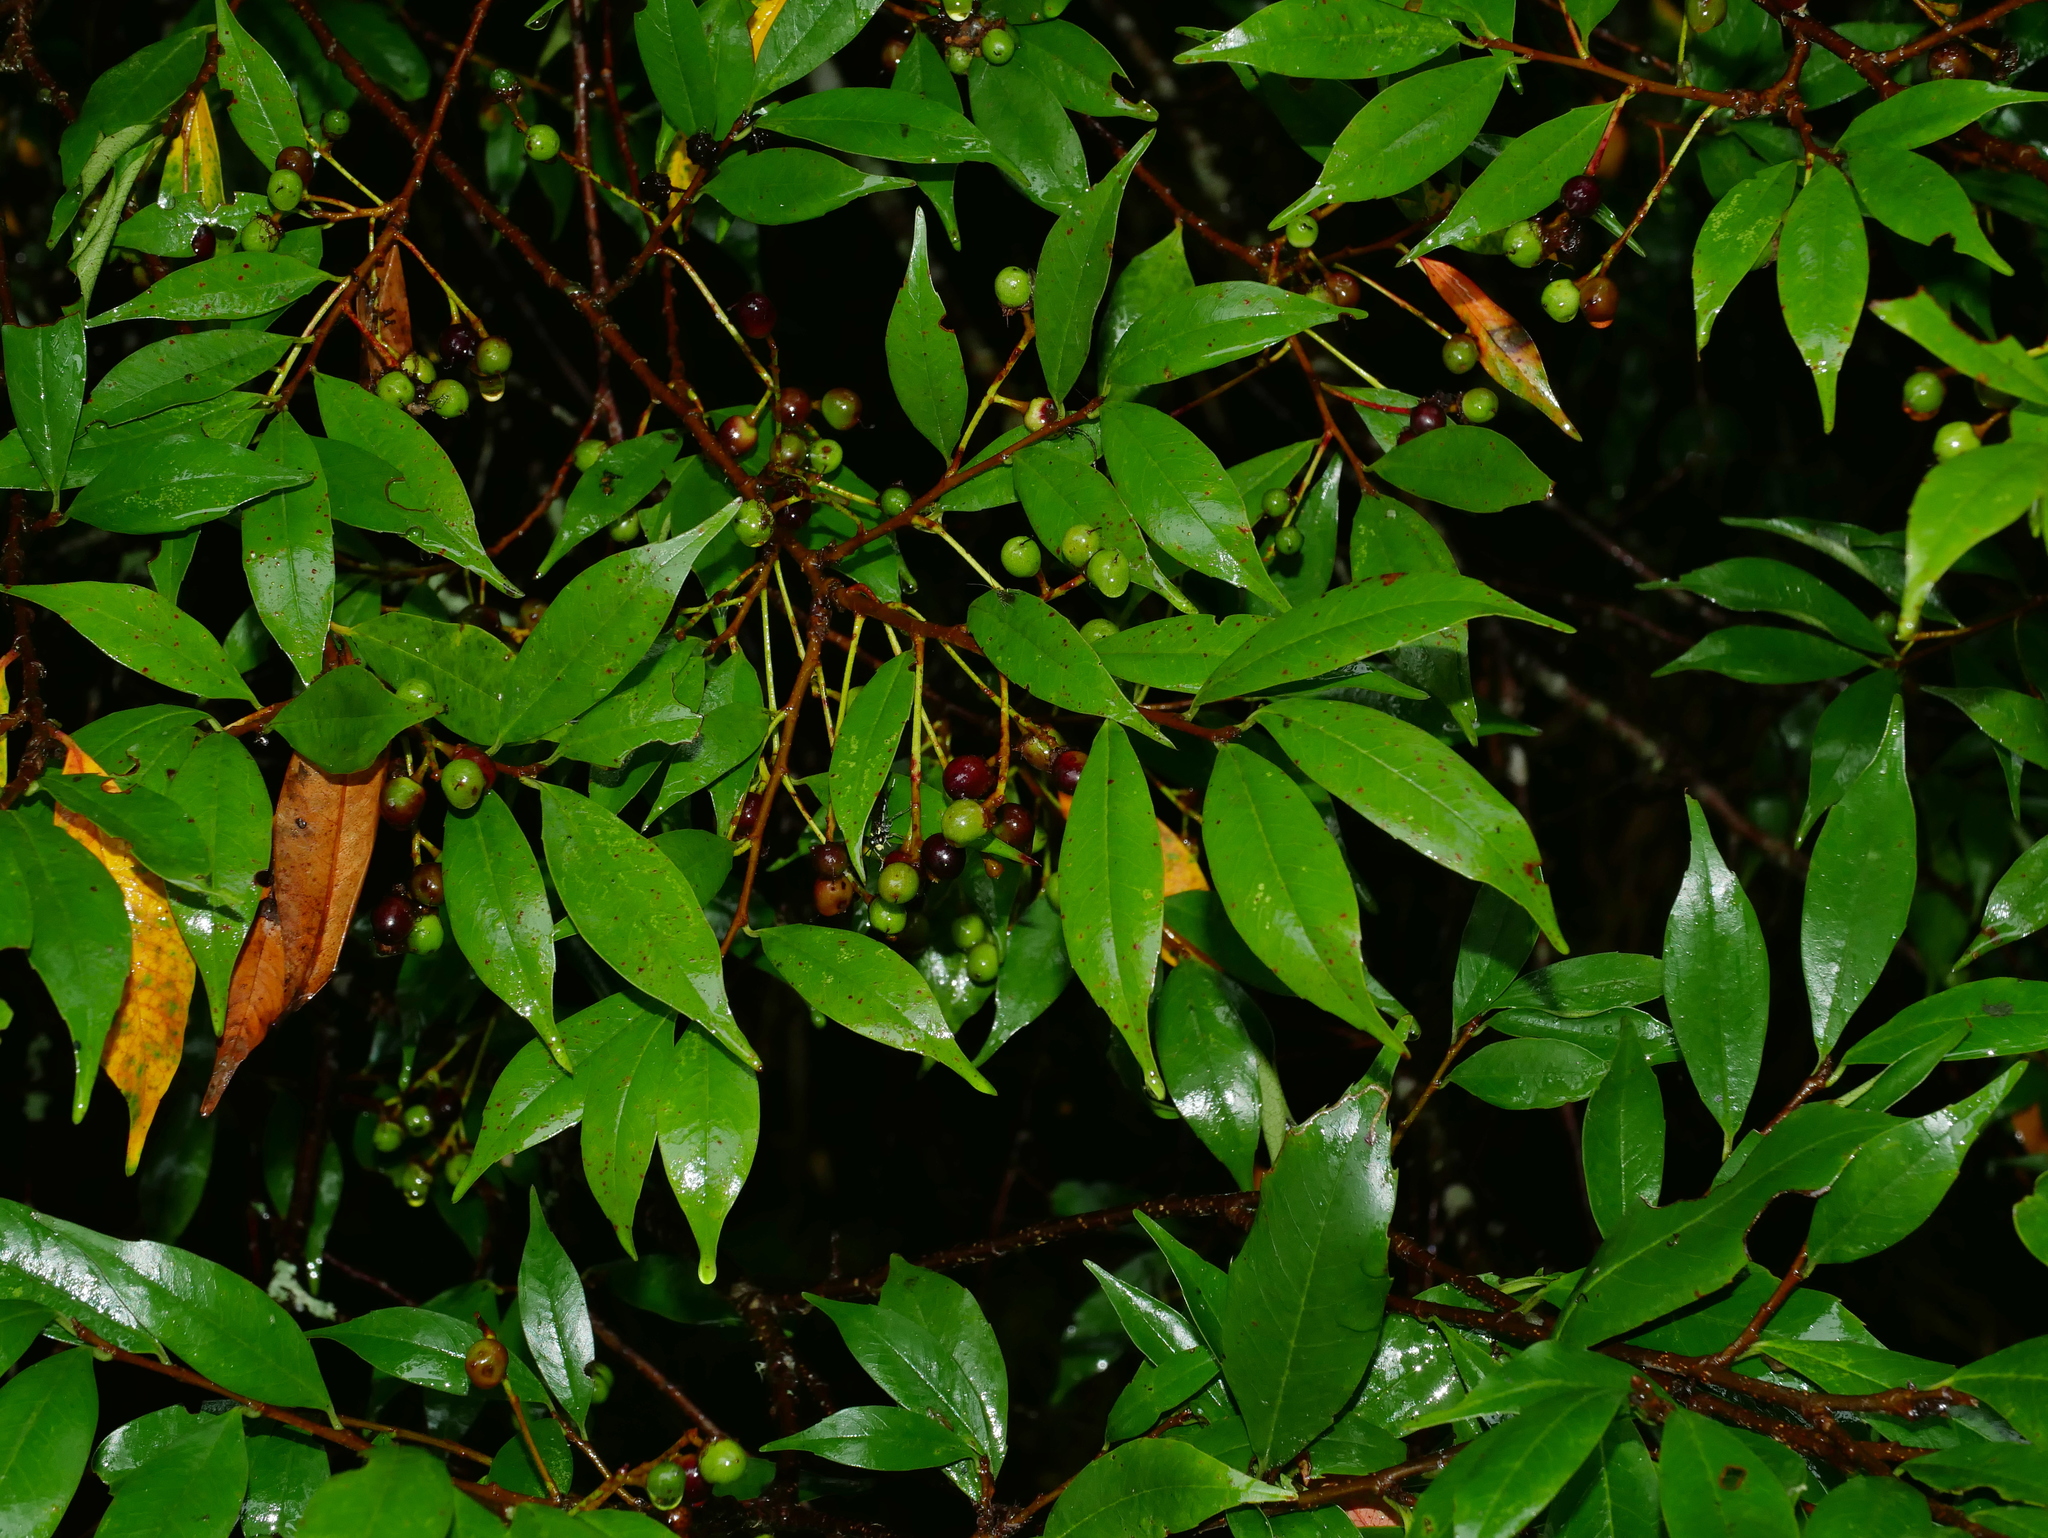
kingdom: Plantae
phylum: Tracheophyta
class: Magnoliopsida
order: Rosales
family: Rosaceae
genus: Prunus
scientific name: Prunus spinulosa
